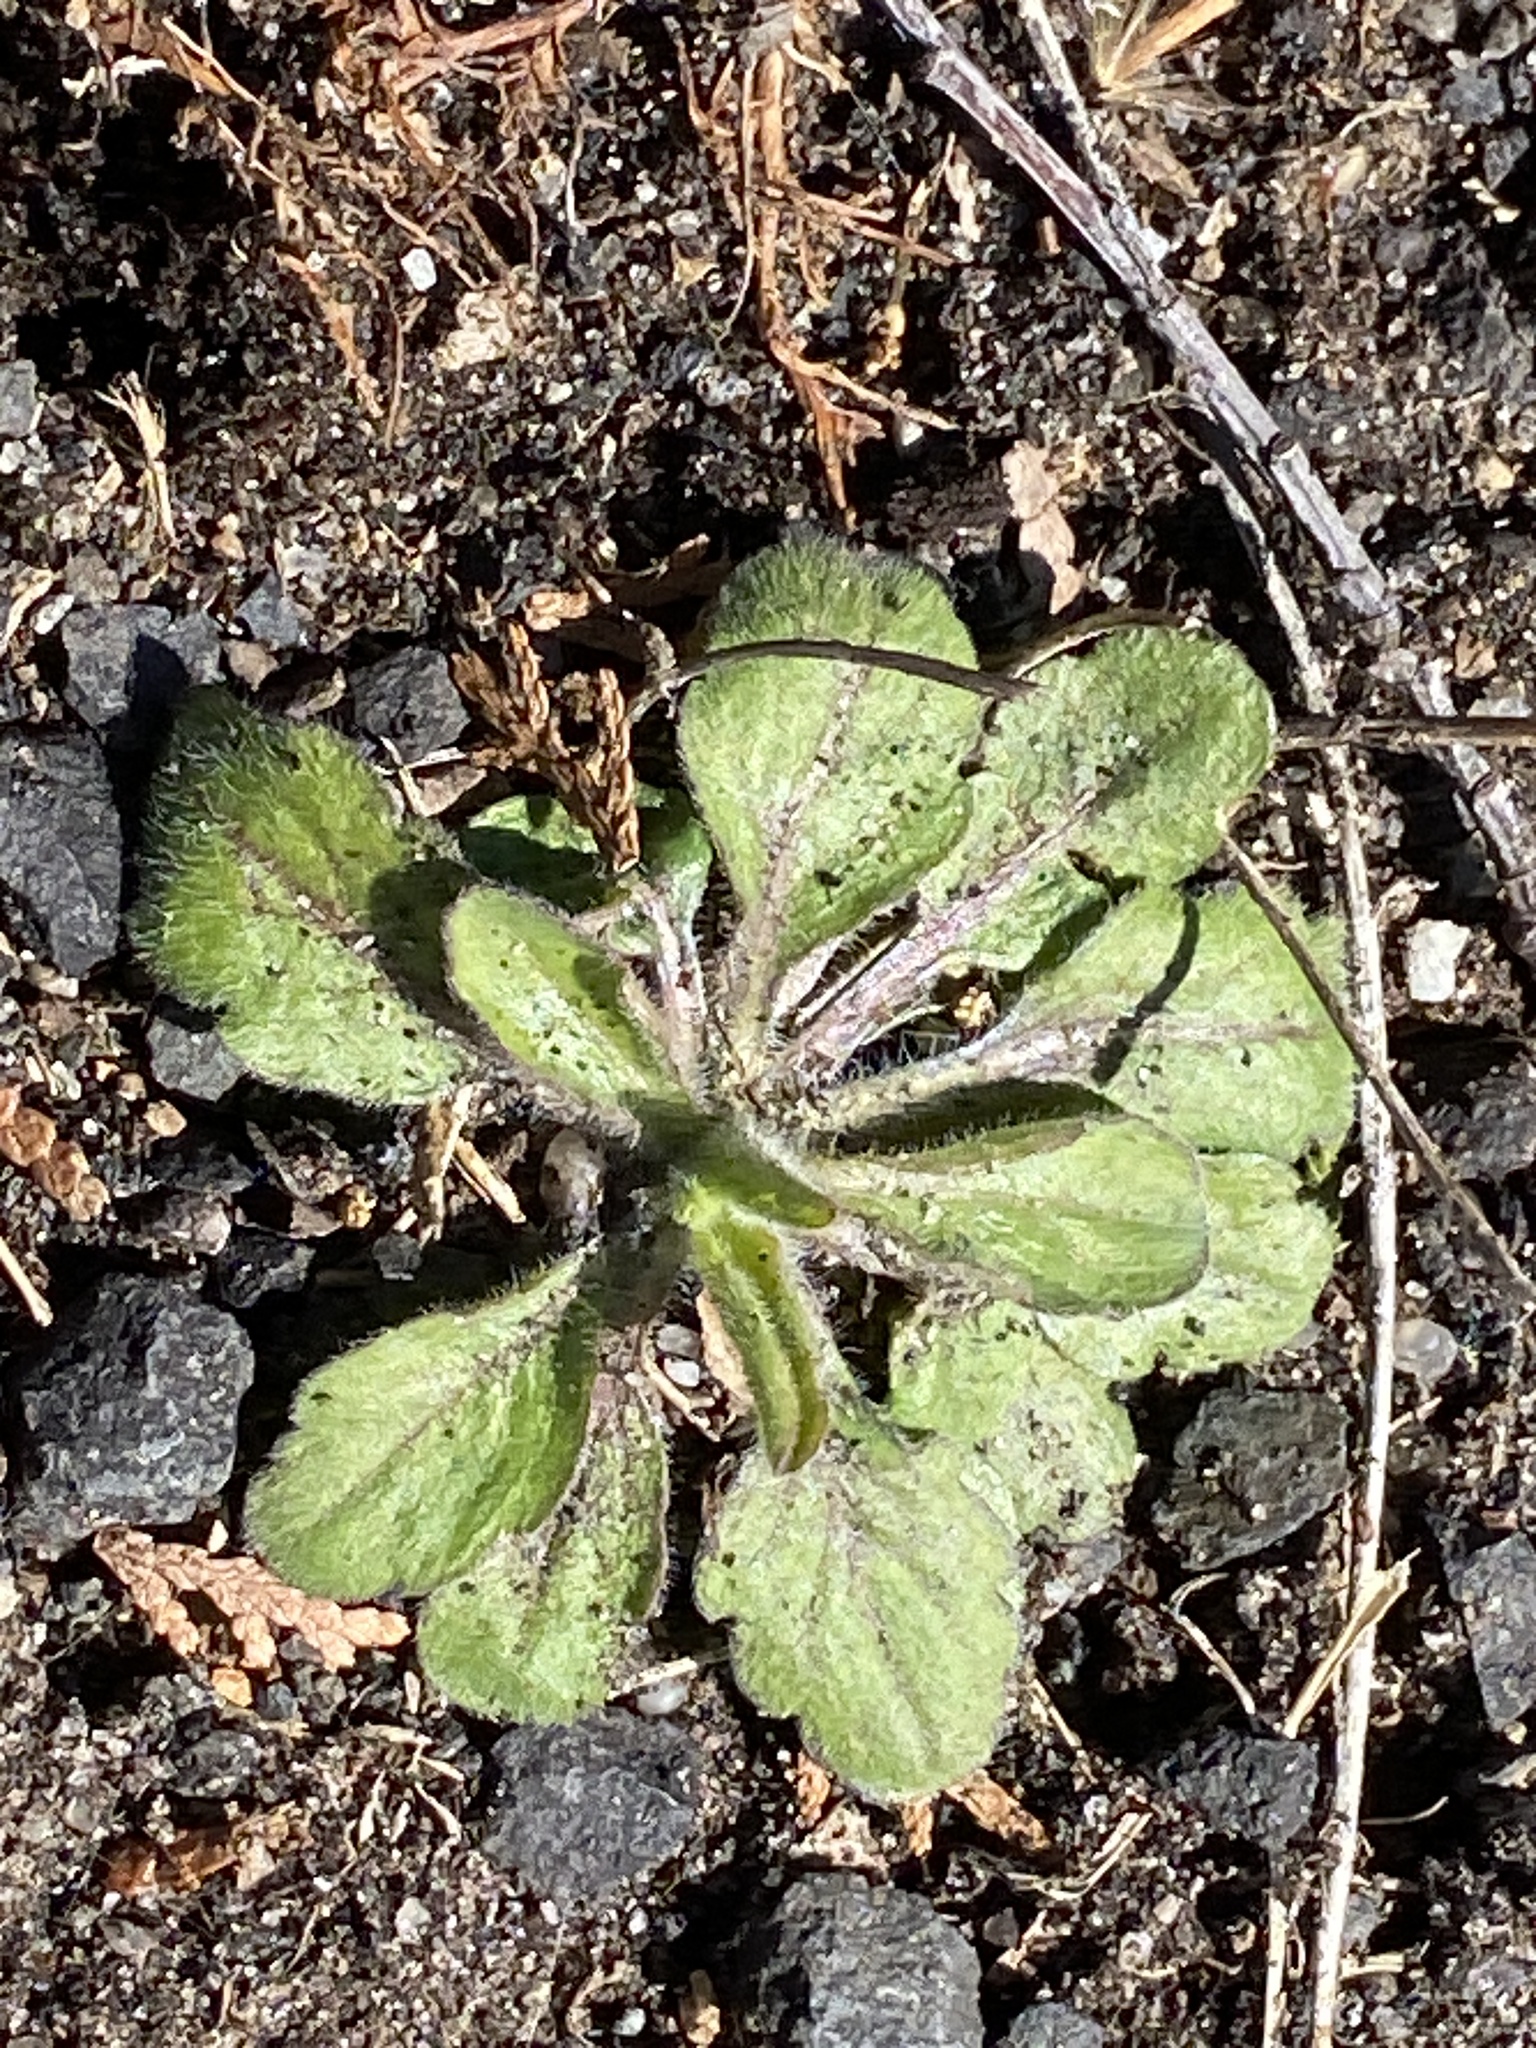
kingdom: Plantae
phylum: Tracheophyta
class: Magnoliopsida
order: Asterales
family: Asteraceae
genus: Erigeron
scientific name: Erigeron canadensis
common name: Canadian fleabane
